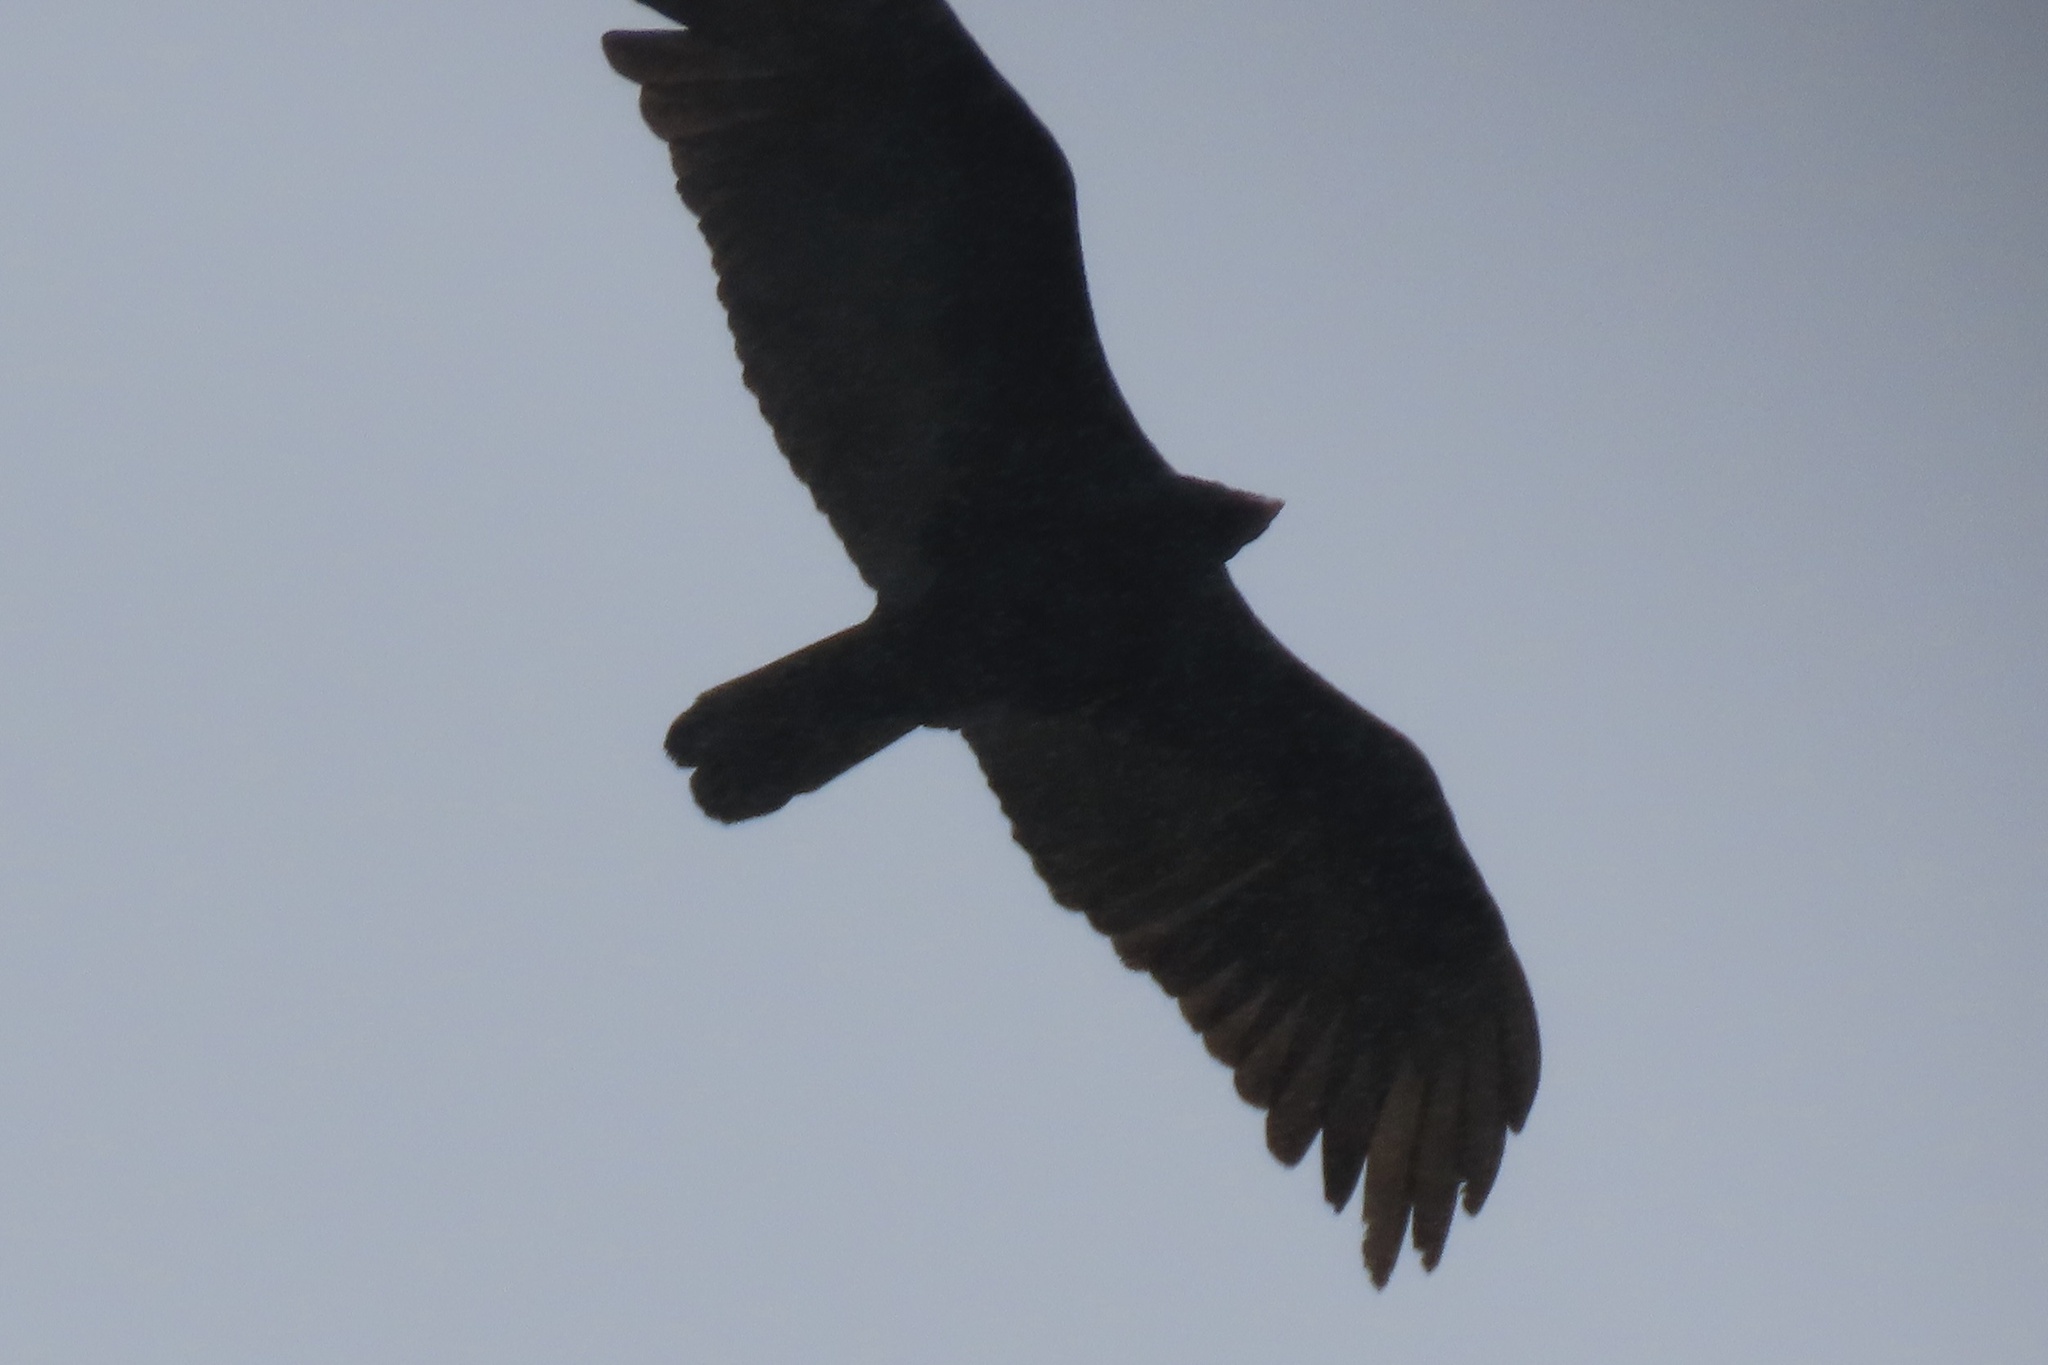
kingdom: Animalia
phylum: Chordata
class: Aves
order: Accipitriformes
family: Cathartidae
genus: Cathartes
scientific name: Cathartes aura
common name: Turkey vulture
